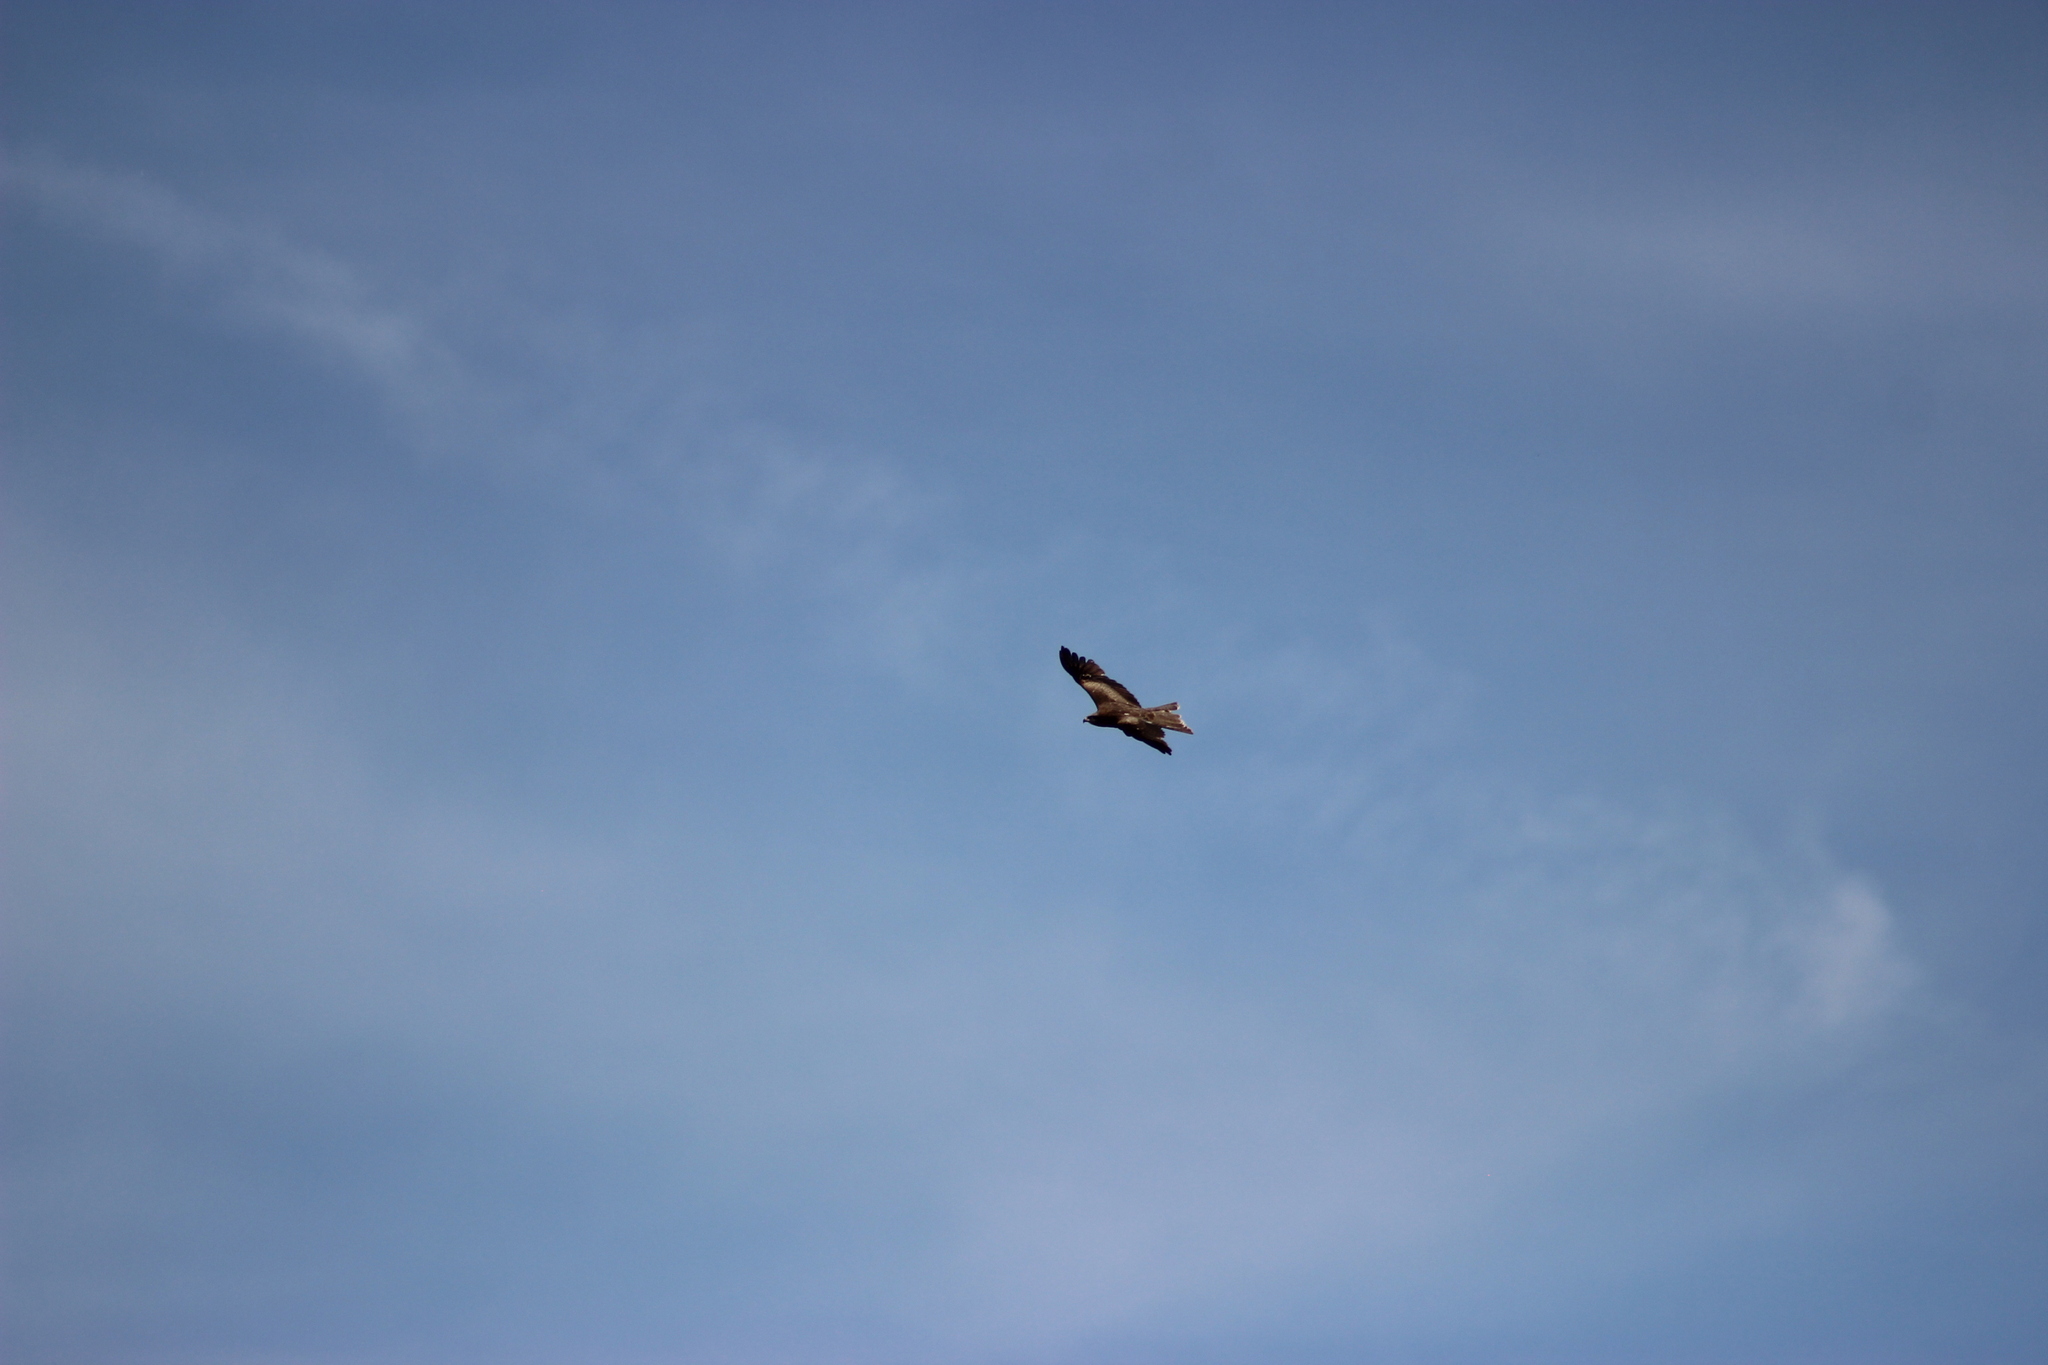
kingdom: Animalia
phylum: Chordata
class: Aves
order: Accipitriformes
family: Accipitridae
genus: Milvus
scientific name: Milvus migrans
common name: Black kite
